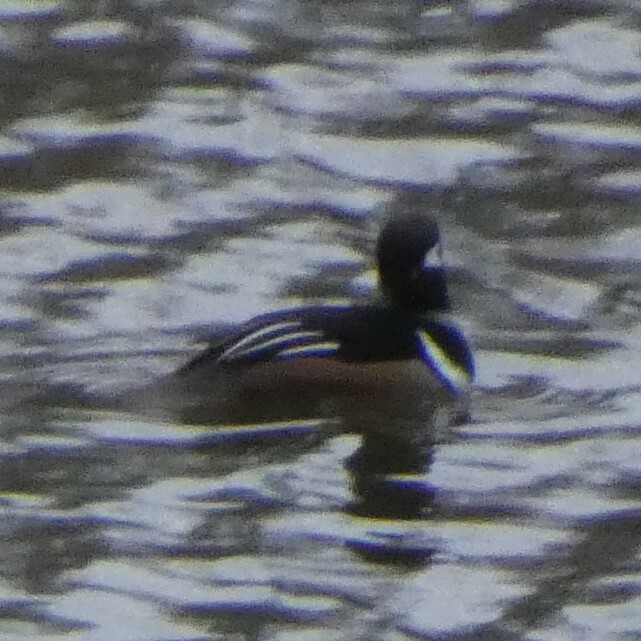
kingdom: Animalia
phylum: Chordata
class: Aves
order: Anseriformes
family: Anatidae
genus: Lophodytes
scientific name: Lophodytes cucullatus
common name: Hooded merganser
